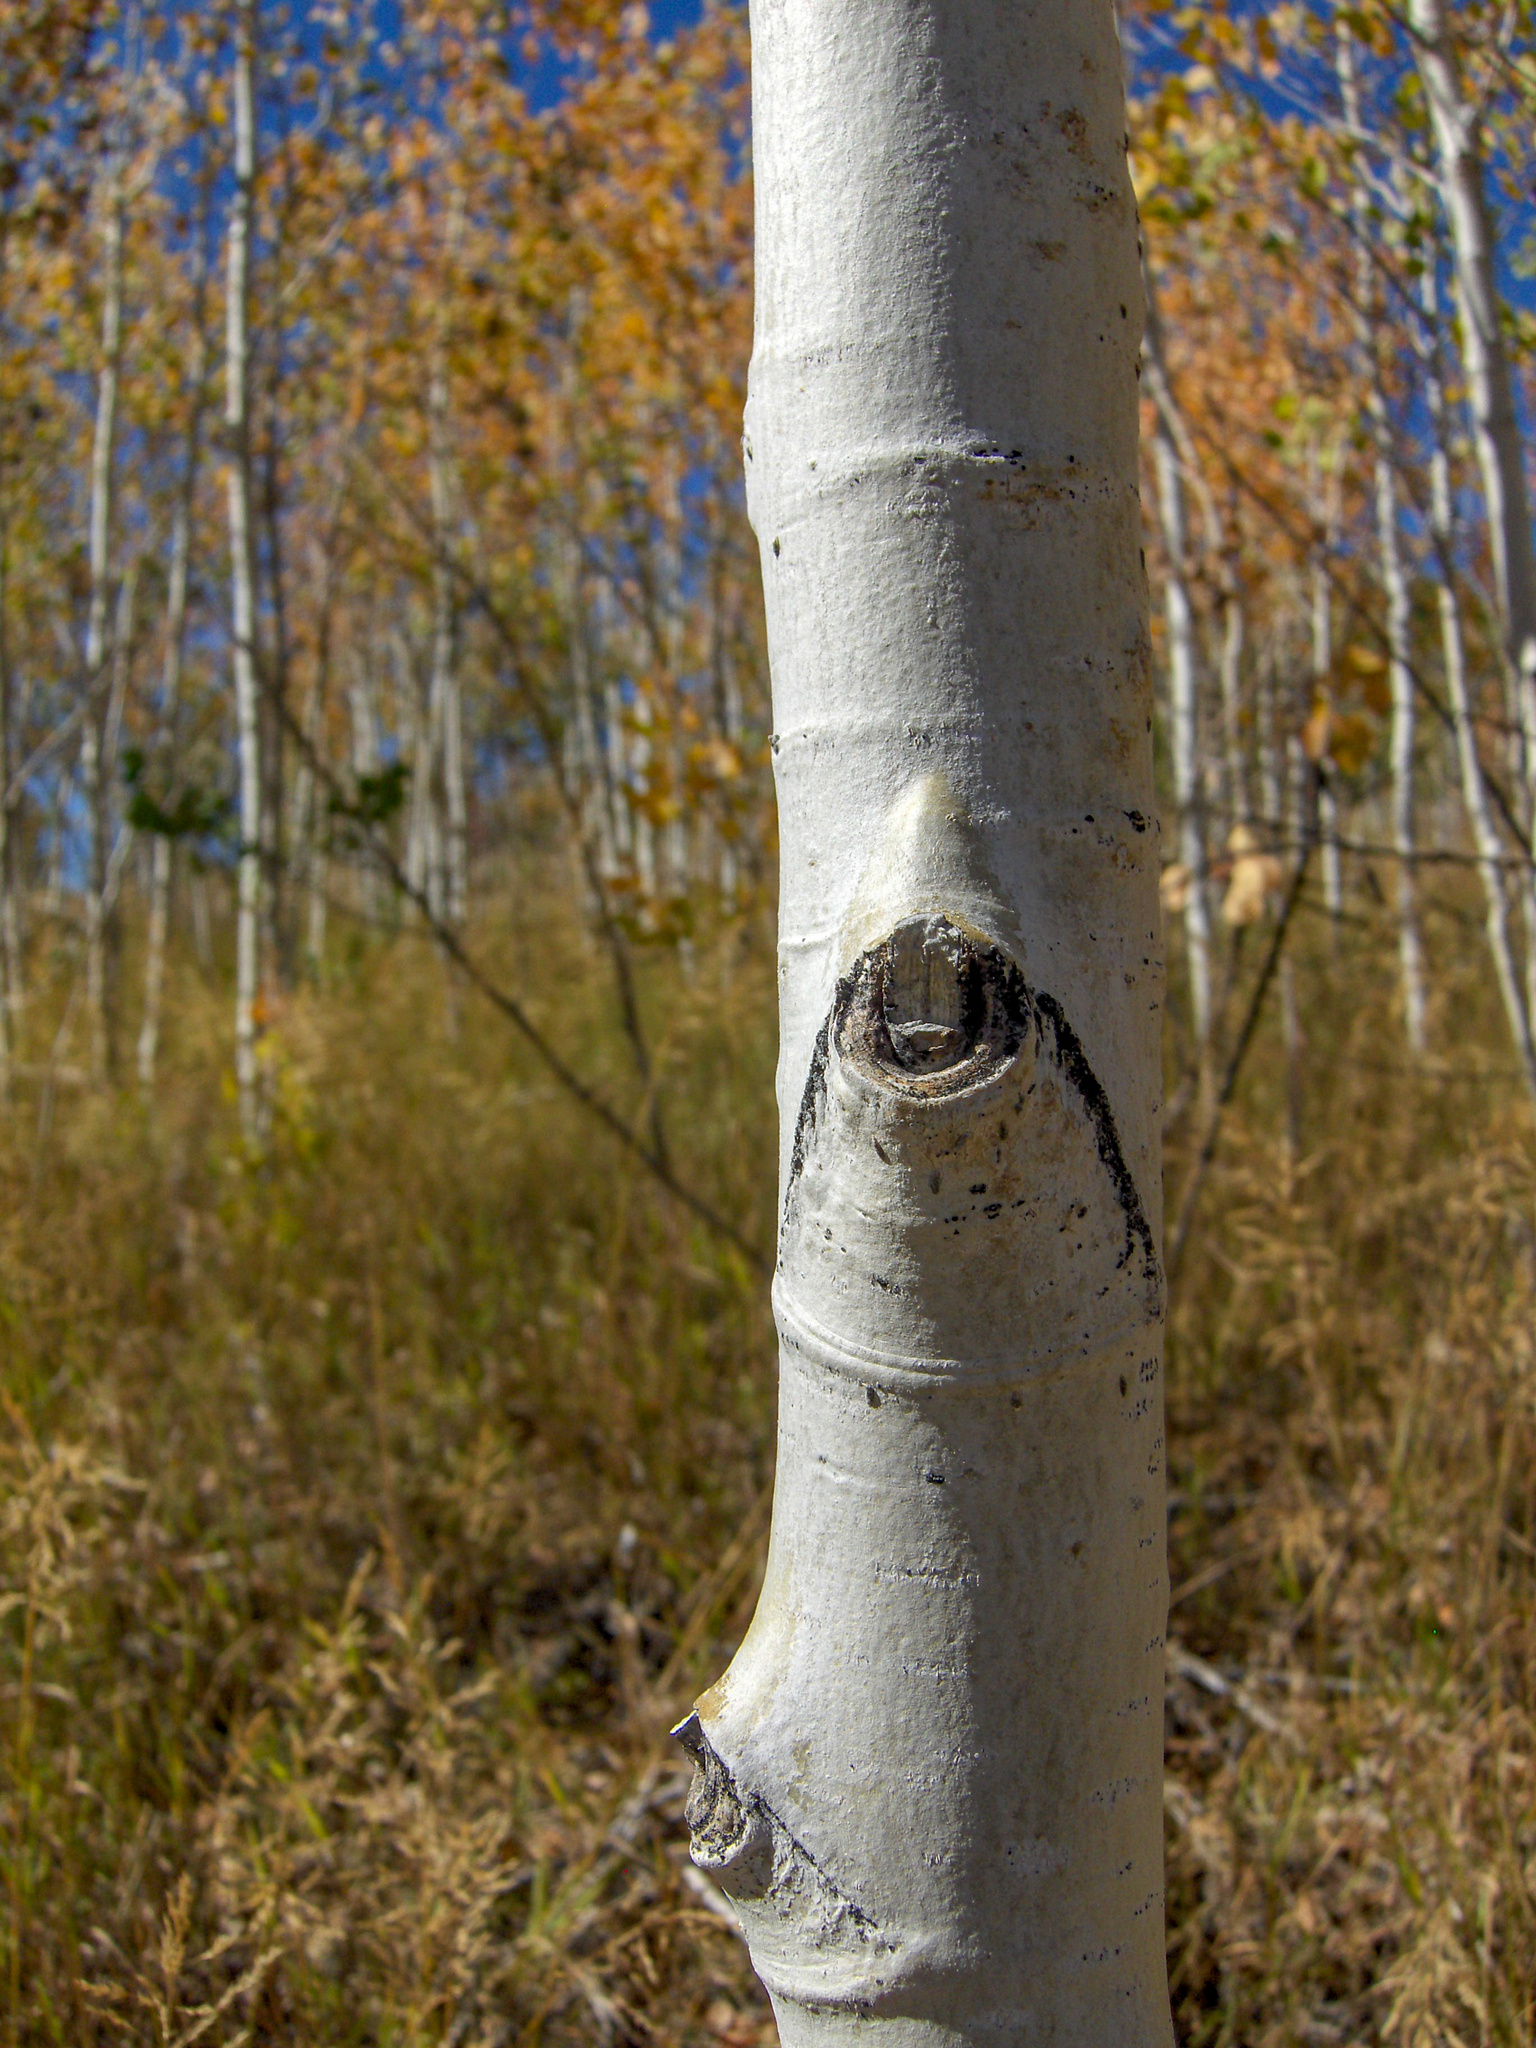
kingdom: Plantae
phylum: Tracheophyta
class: Magnoliopsida
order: Malpighiales
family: Salicaceae
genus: Populus
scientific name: Populus tremuloides
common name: Quaking aspen
